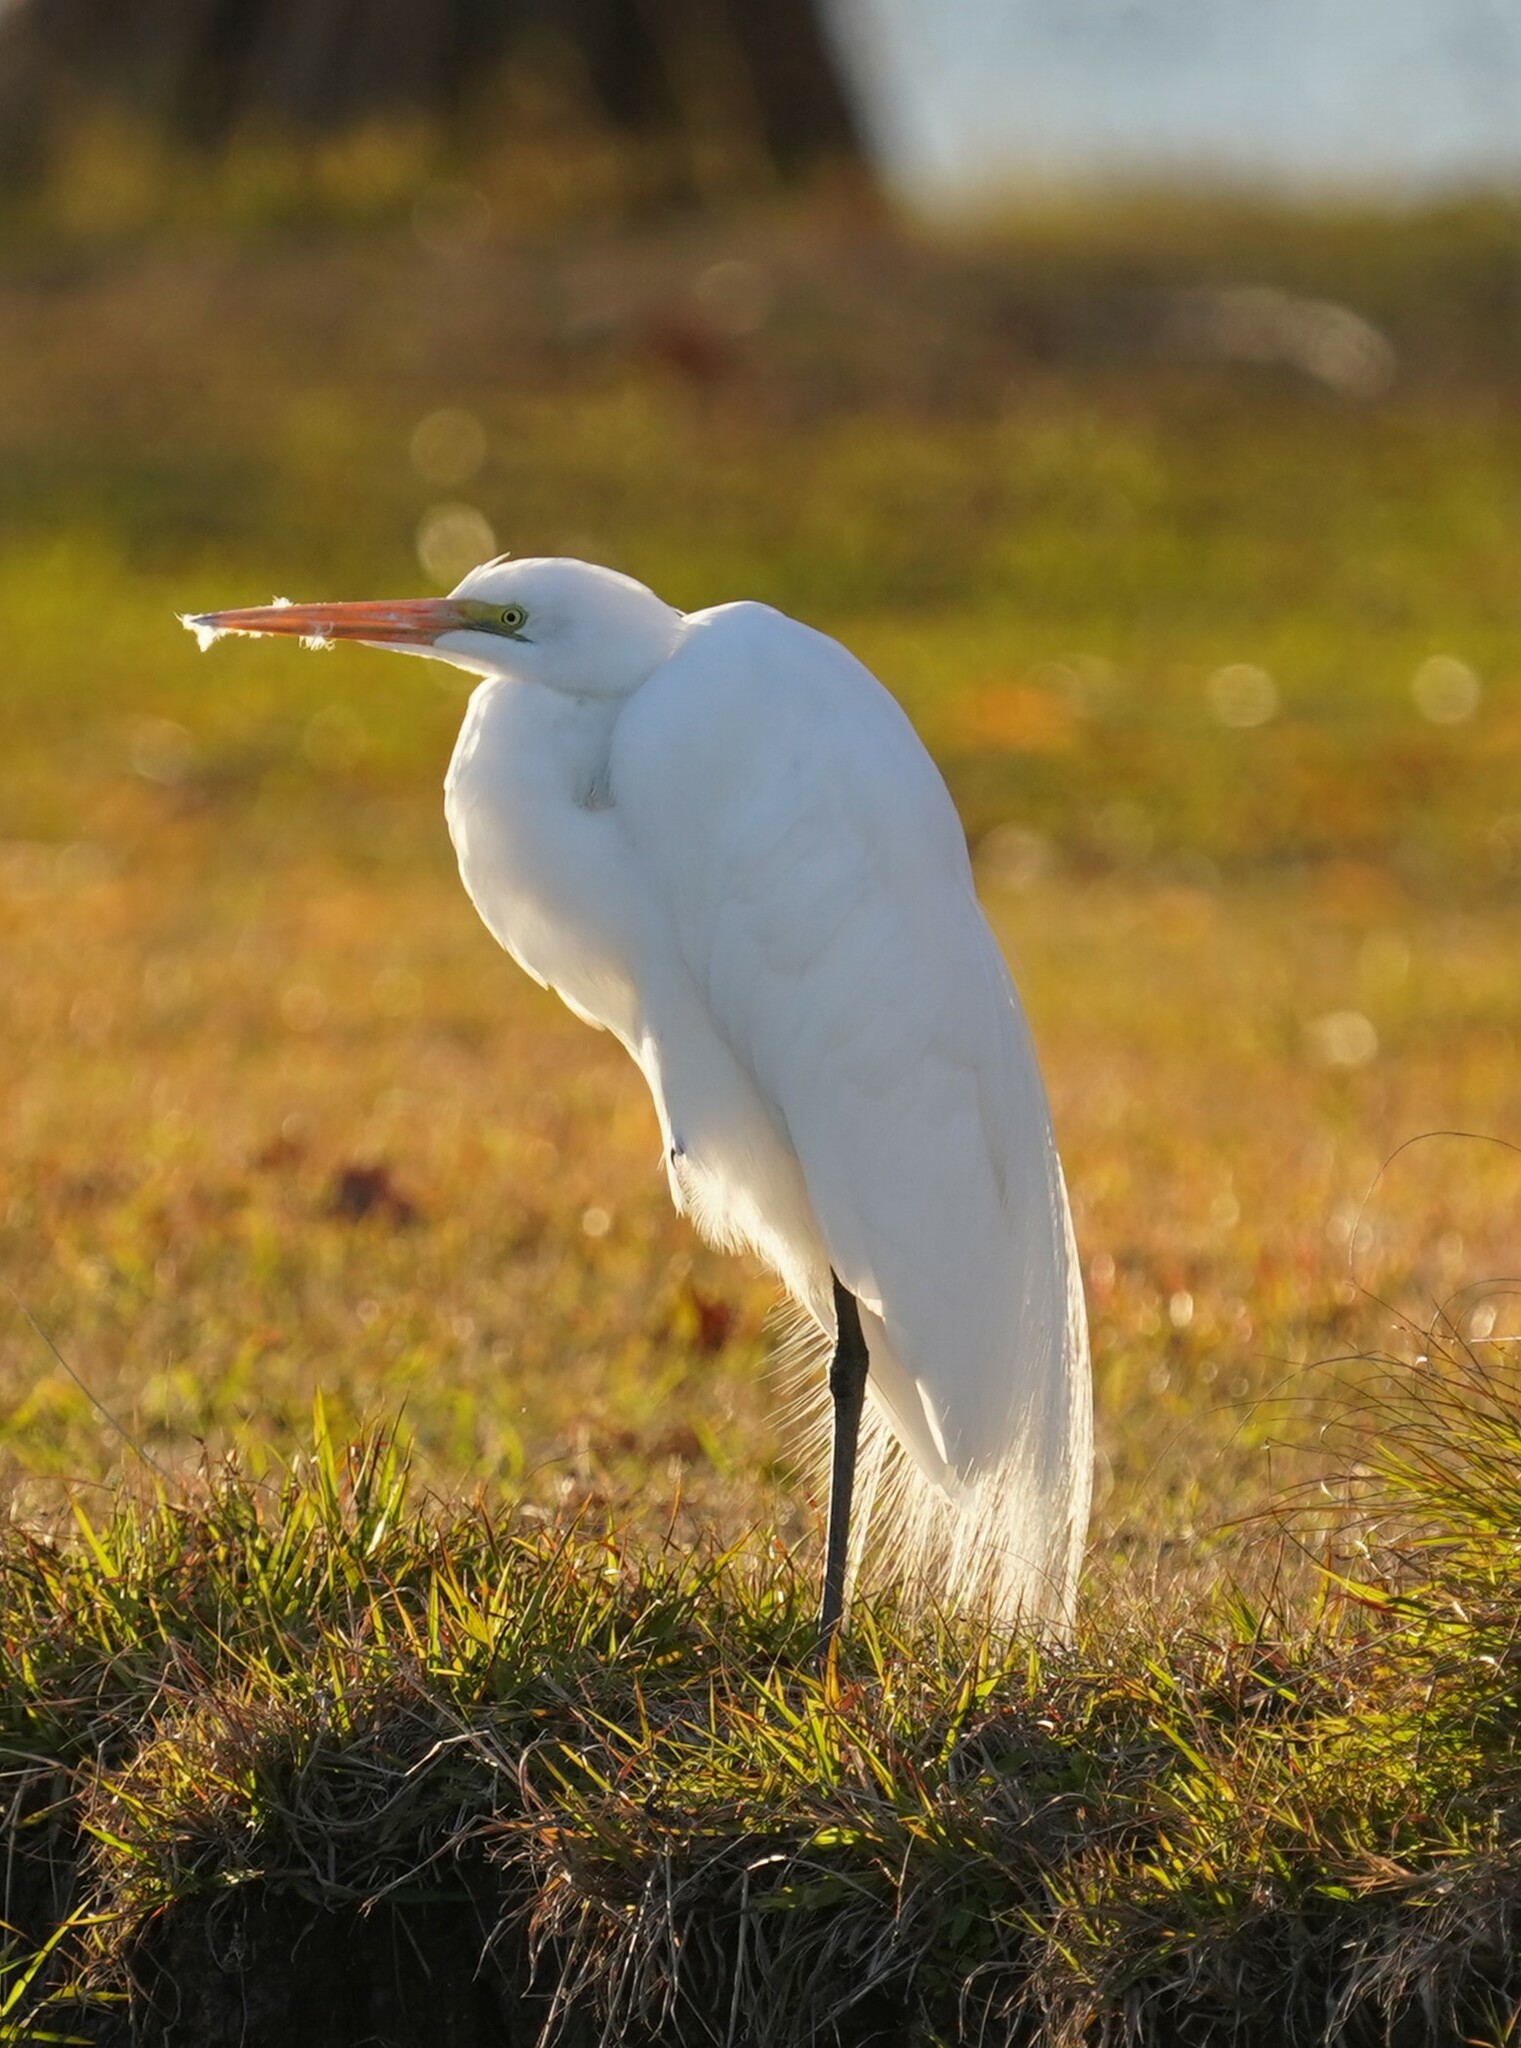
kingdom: Animalia
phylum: Chordata
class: Aves
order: Pelecaniformes
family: Ardeidae
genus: Ardea
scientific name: Ardea alba
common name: Great egret
